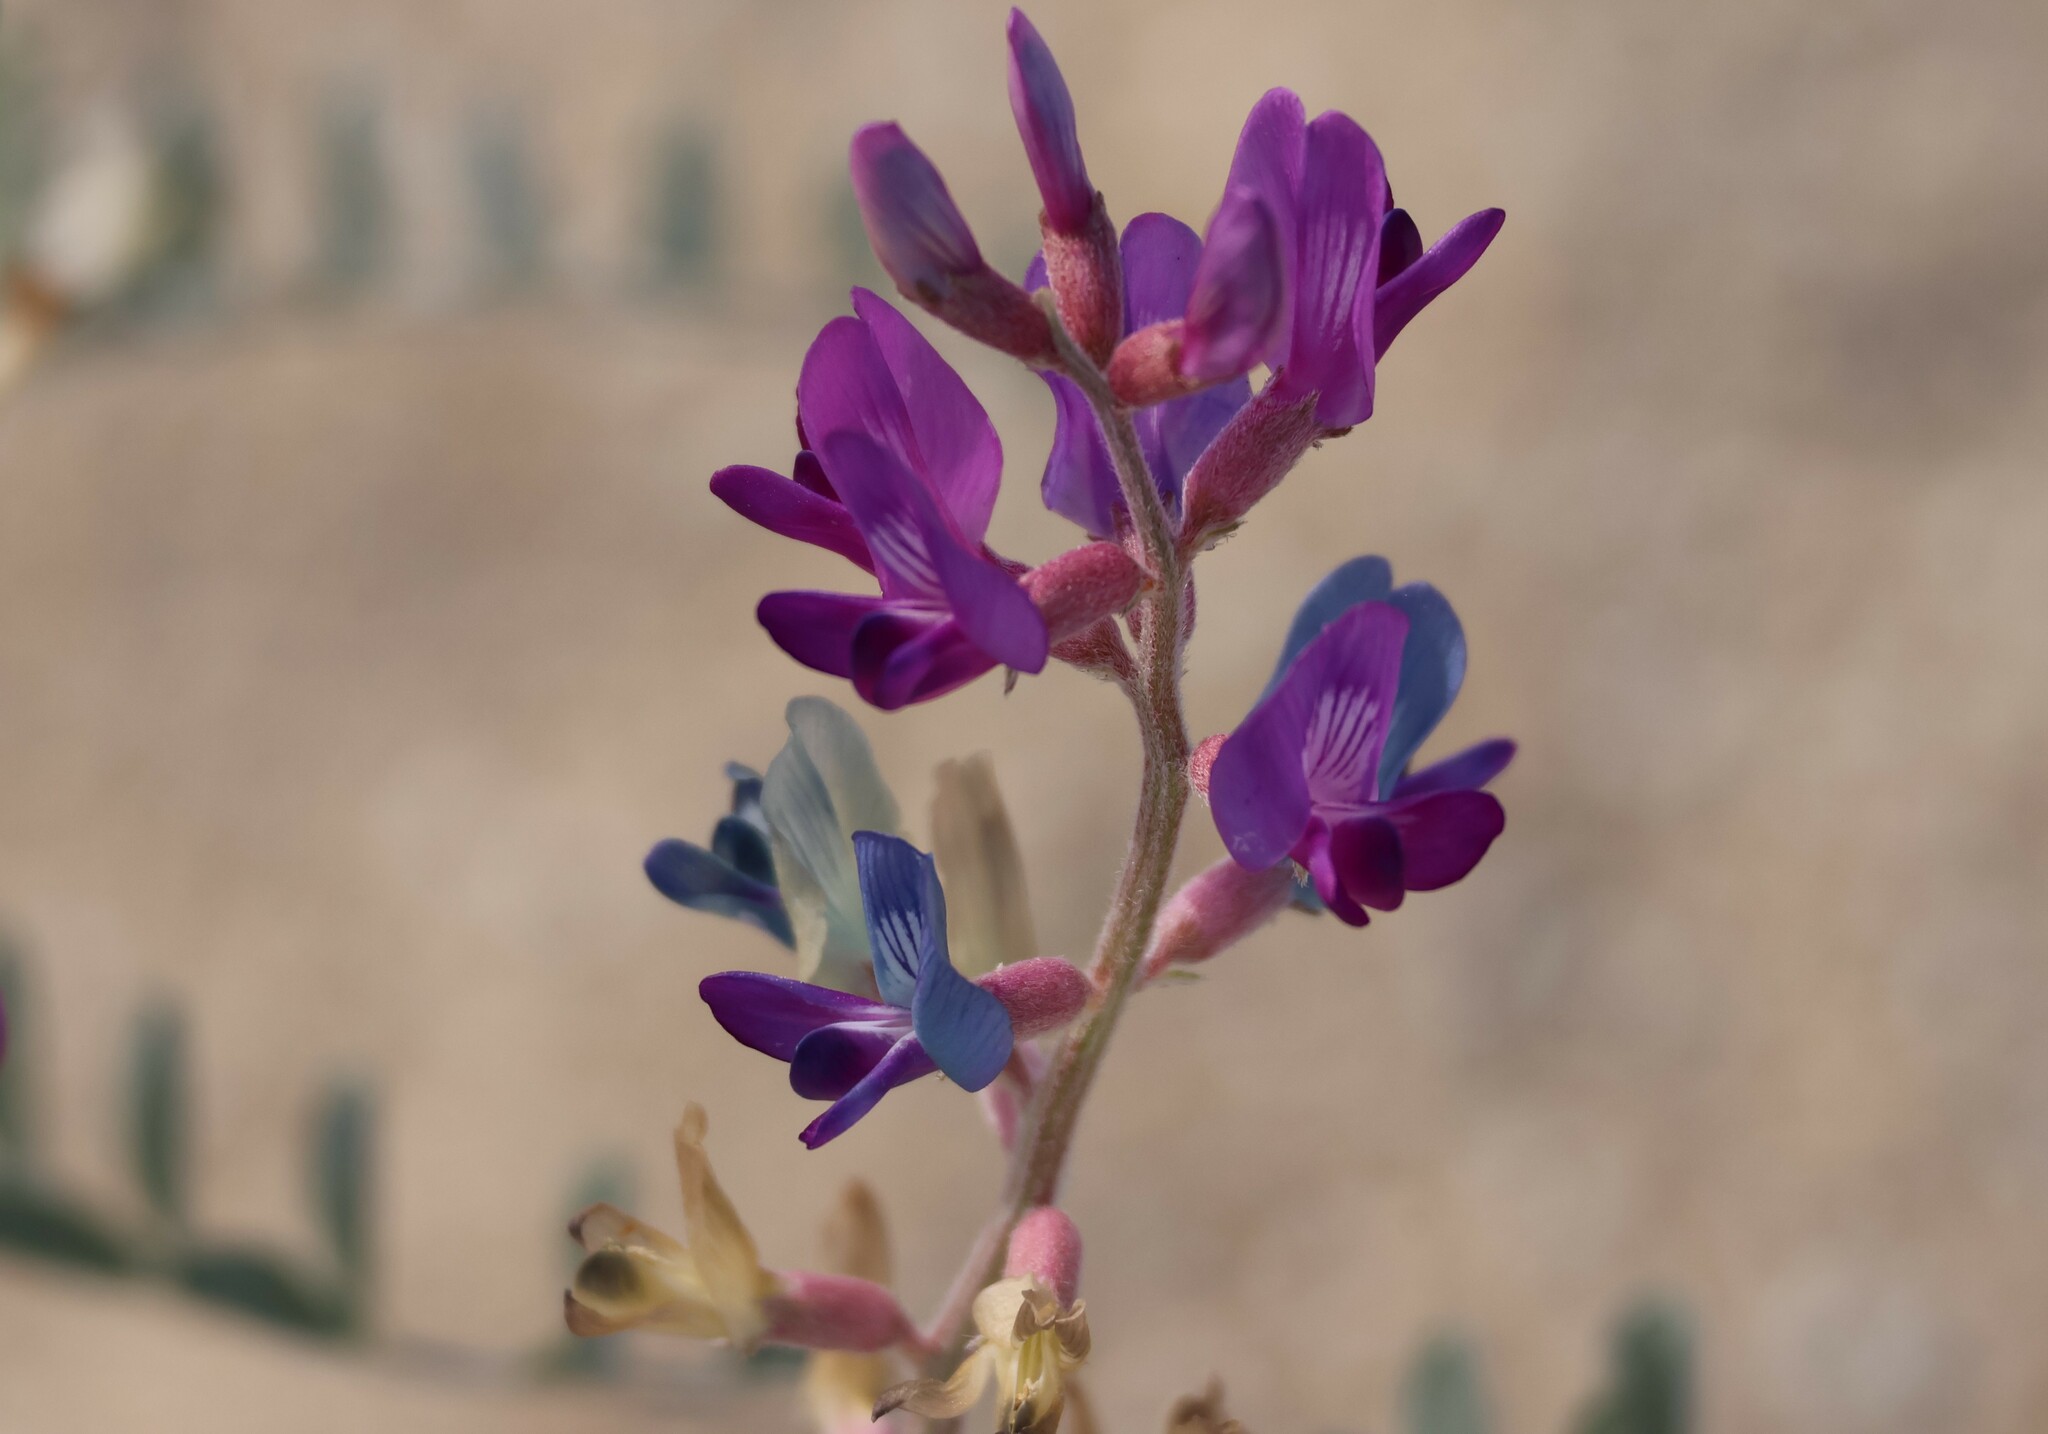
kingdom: Plantae
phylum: Tracheophyta
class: Magnoliopsida
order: Fabales
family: Fabaceae
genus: Astragalus
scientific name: Astragalus lentiginosus
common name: Freckled milkvetch
